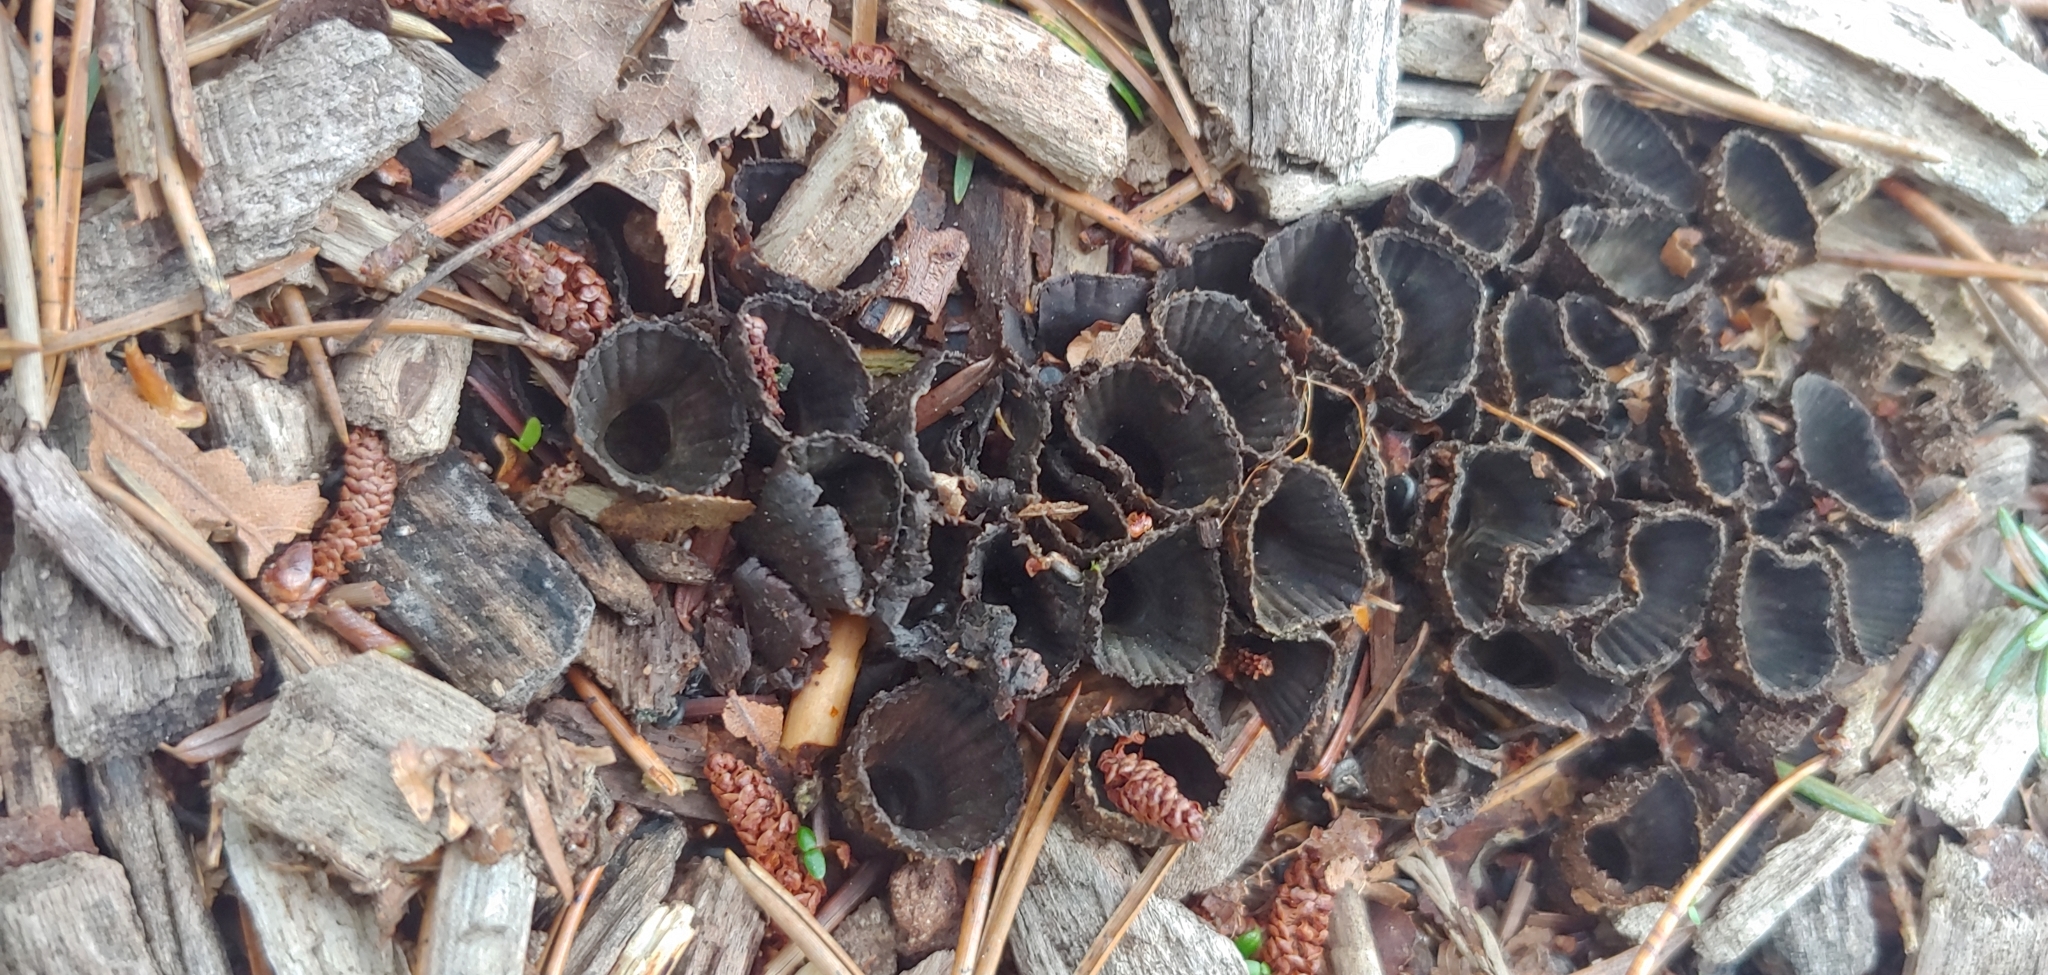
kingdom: Fungi
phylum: Basidiomycota
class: Agaricomycetes
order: Agaricales
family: Agaricaceae
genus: Cyathus
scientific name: Cyathus striatus
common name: Fluted bird's nest
